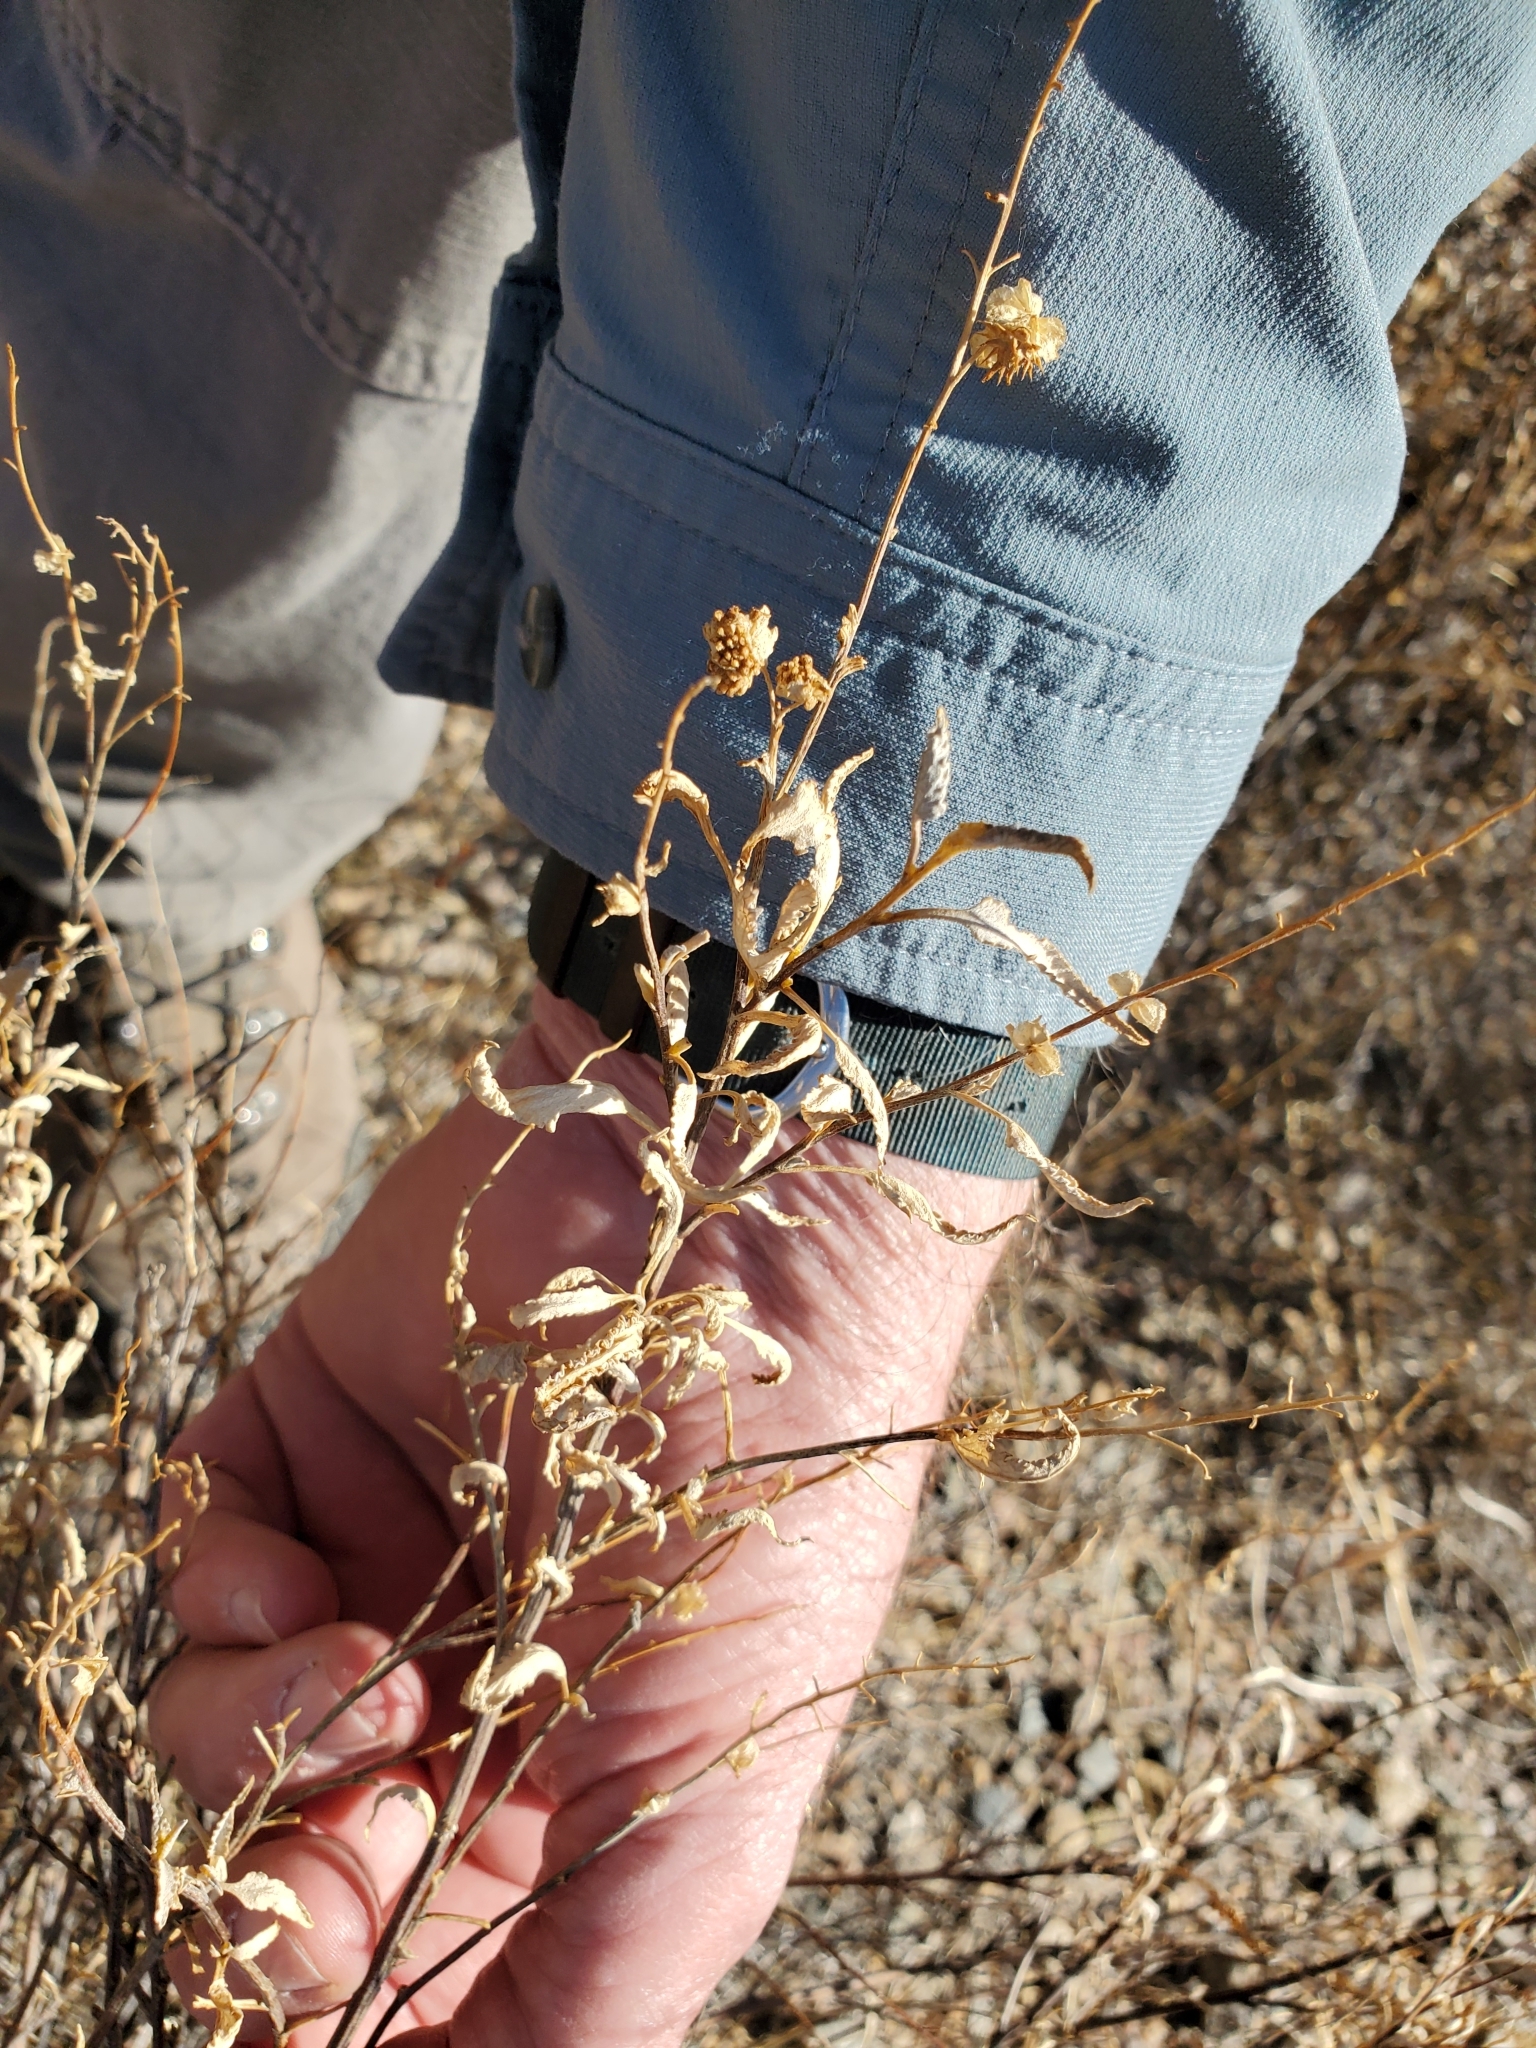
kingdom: Plantae
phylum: Tracheophyta
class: Magnoliopsida
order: Asterales
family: Asteraceae
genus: Ambrosia
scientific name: Ambrosia deltoidea
